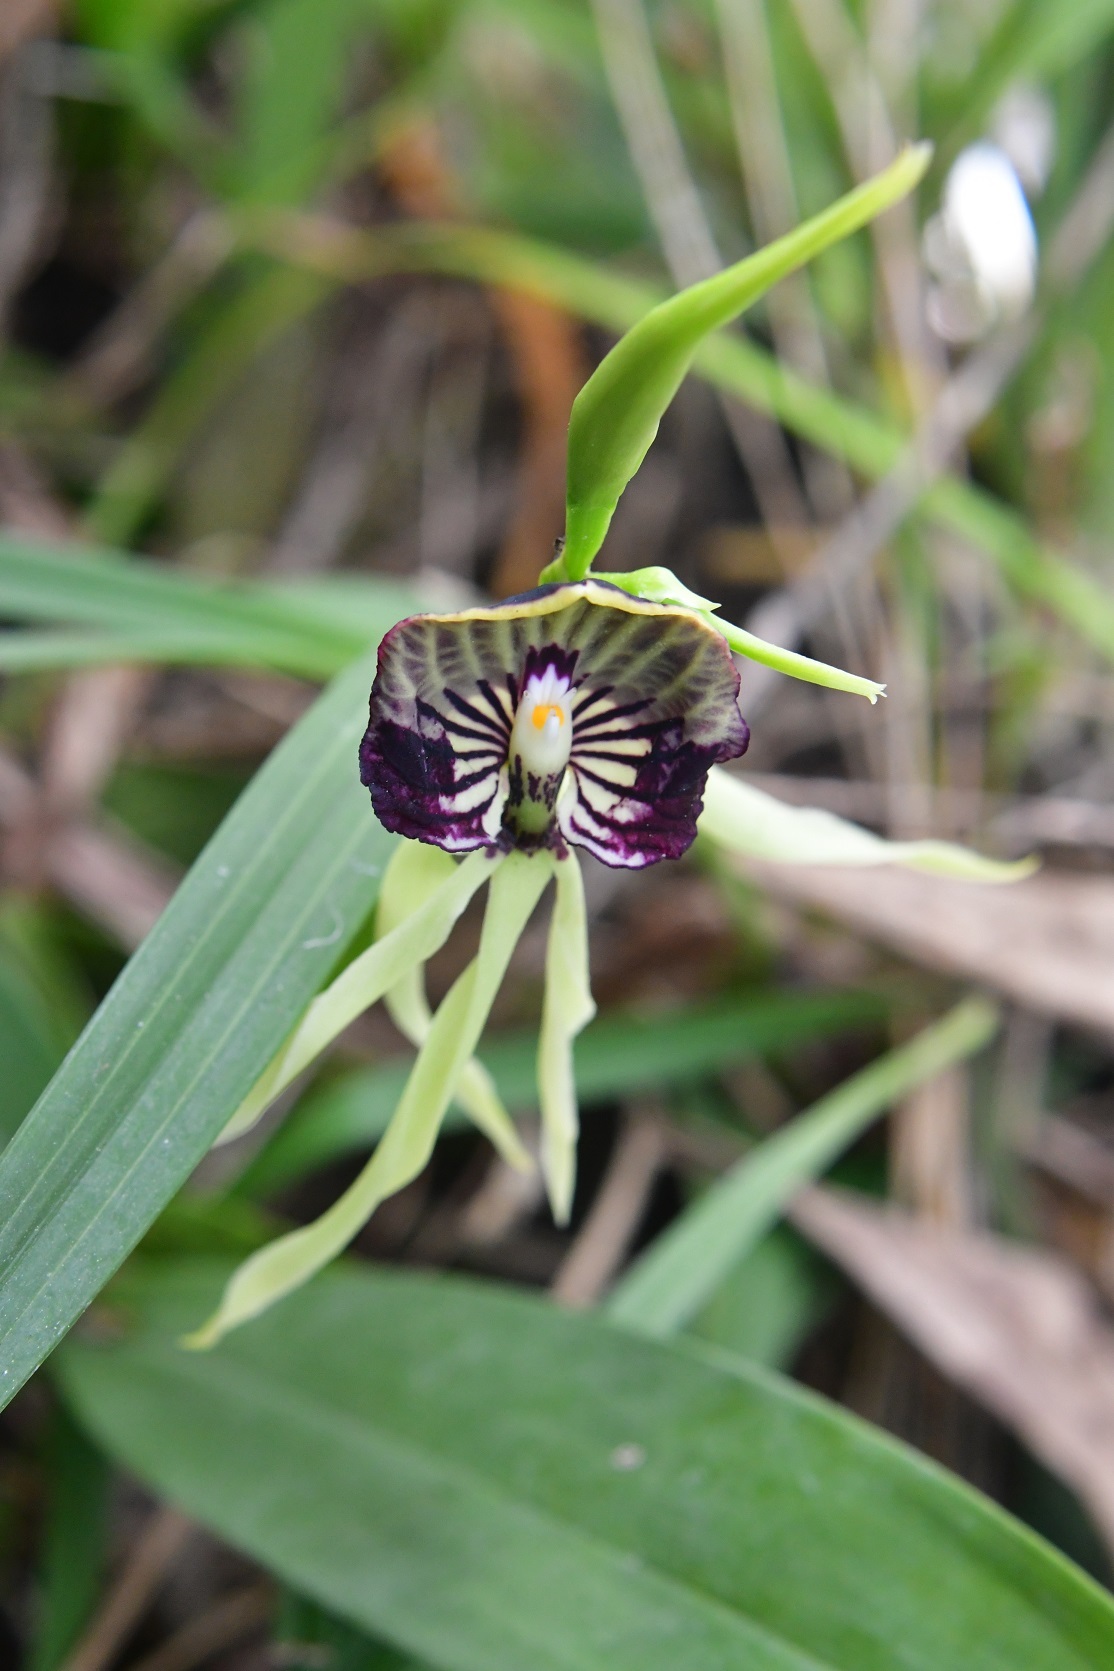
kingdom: Plantae
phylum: Tracheophyta
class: Liliopsida
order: Asparagales
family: Orchidaceae
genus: Prosthechea
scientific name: Prosthechea cochleata
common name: Clamshell orchid
